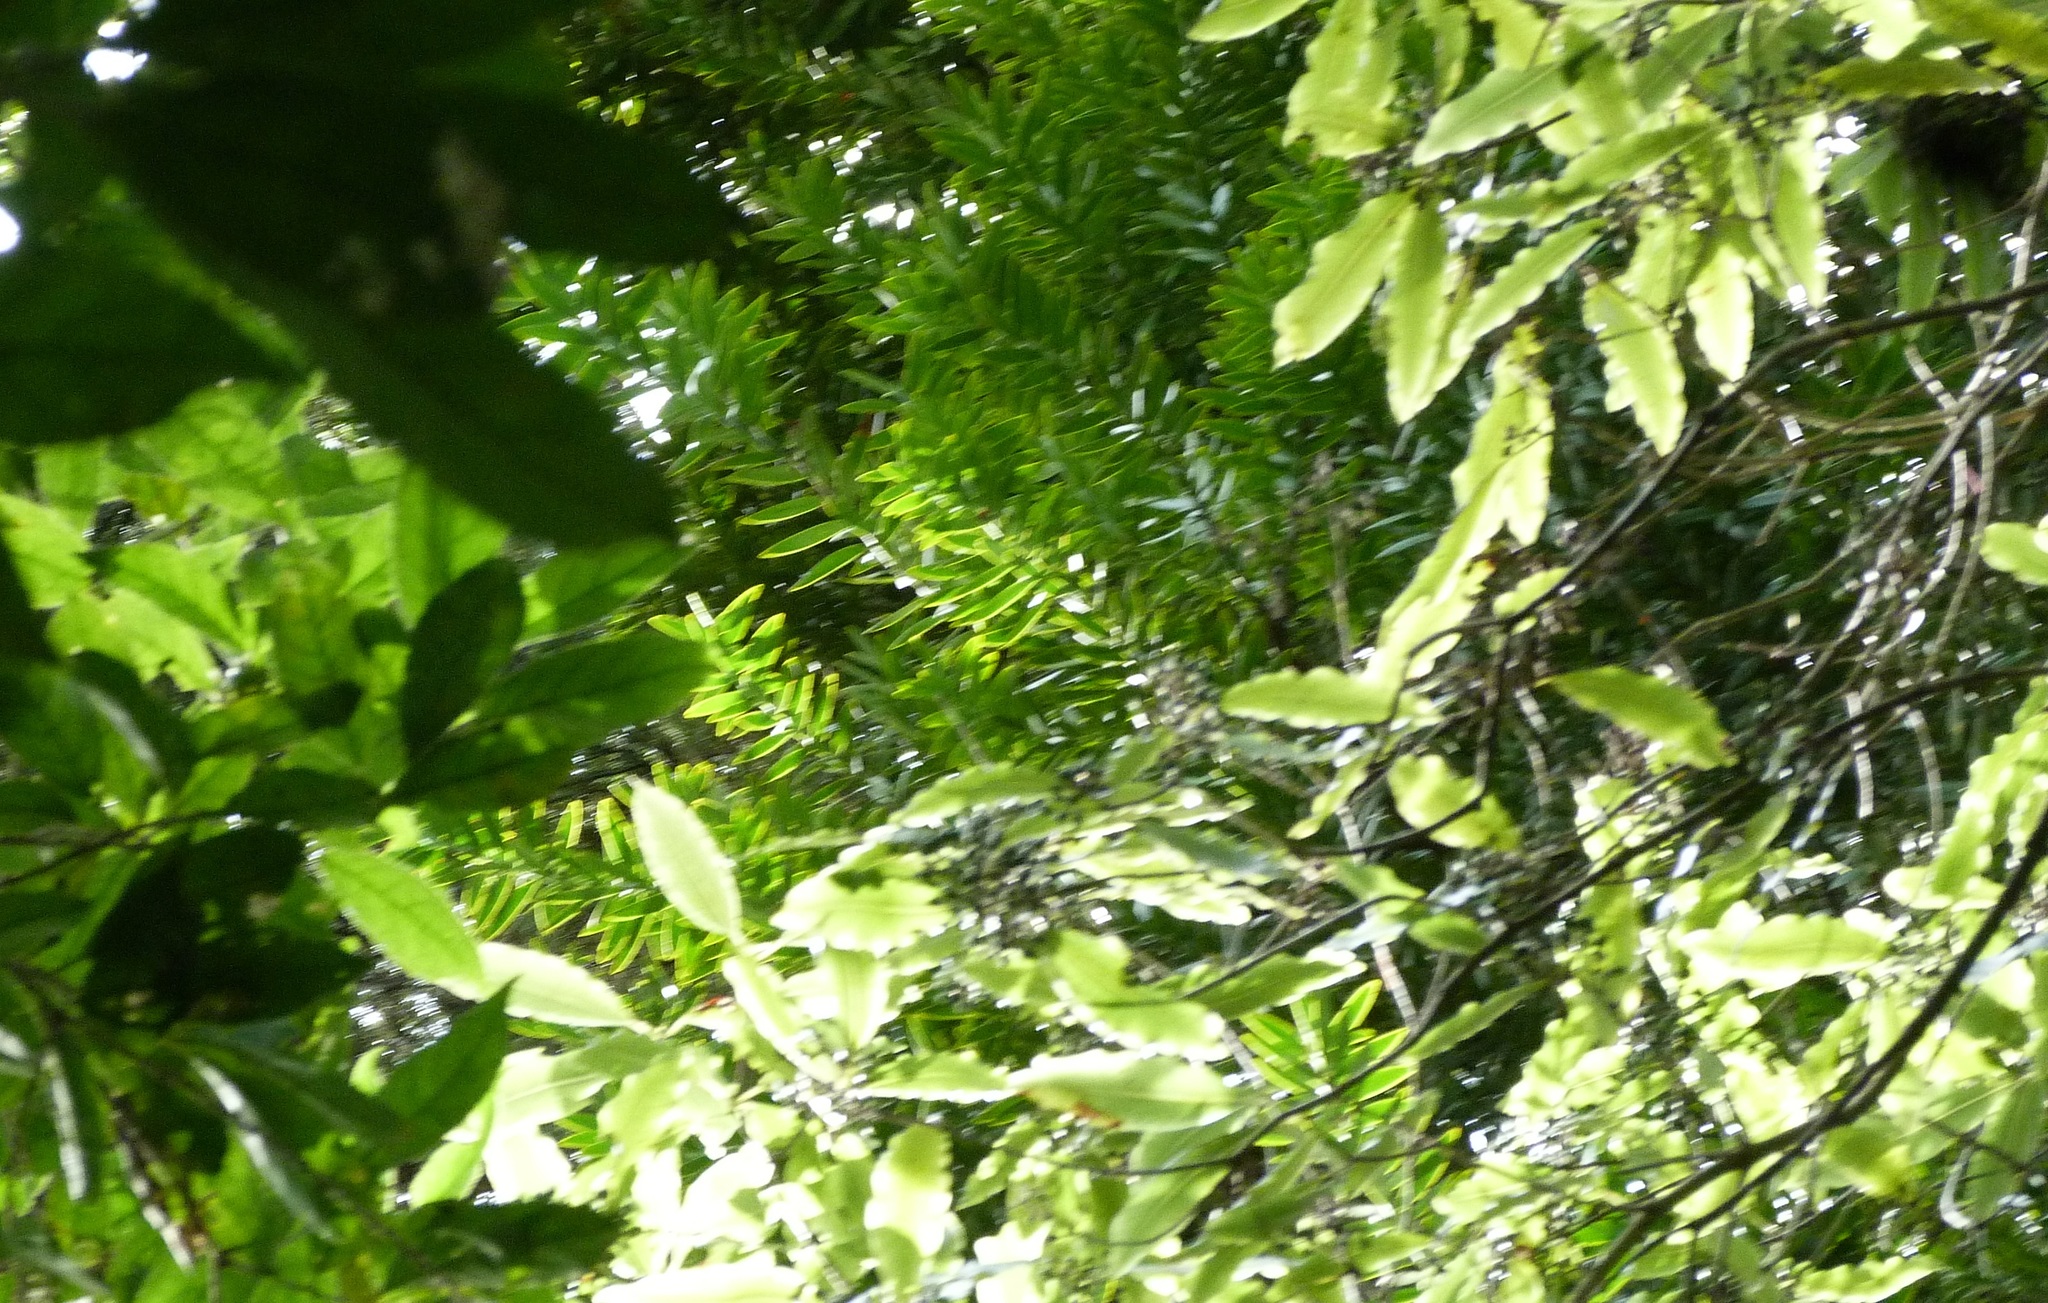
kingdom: Plantae
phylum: Tracheophyta
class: Magnoliopsida
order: Apiales
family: Pittosporaceae
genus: Pittosporum
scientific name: Pittosporum eugenioides
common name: Lemonwood
